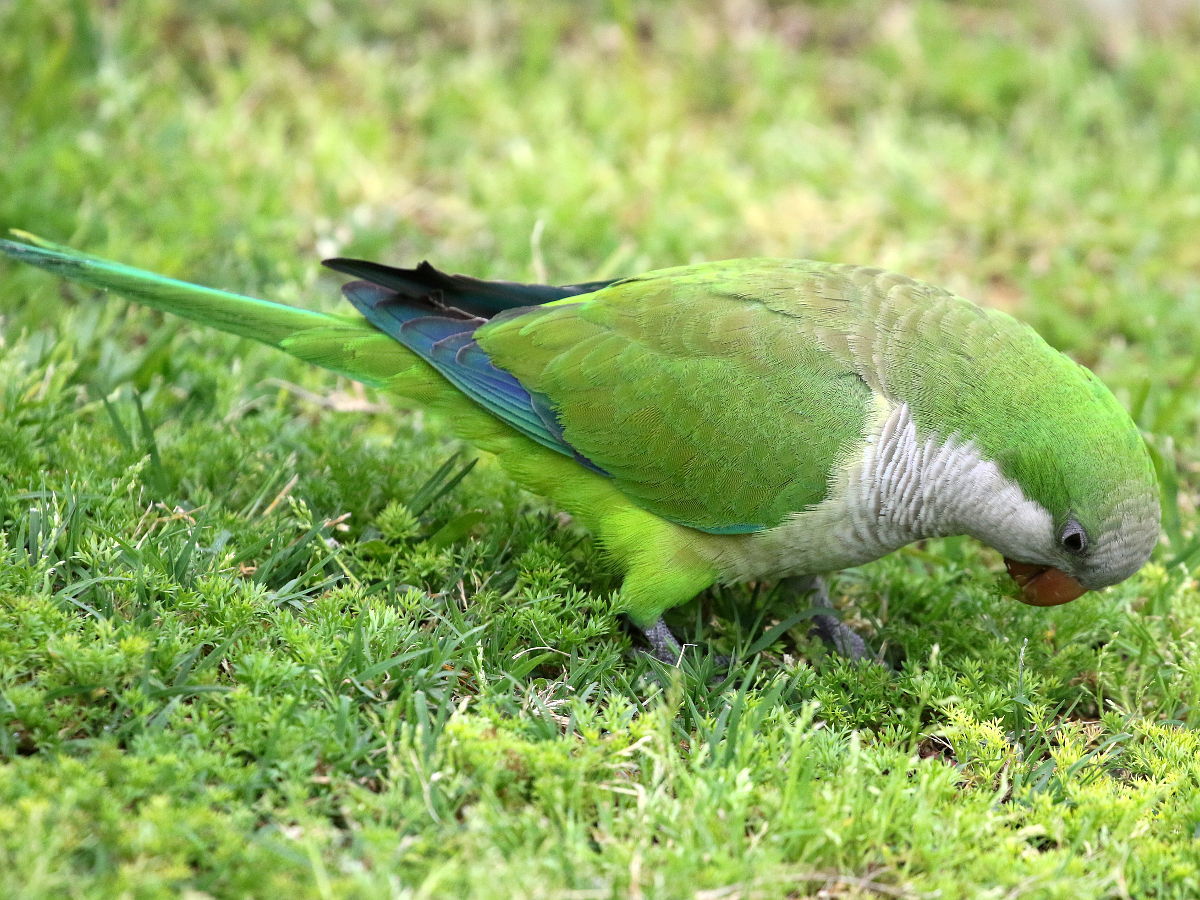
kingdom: Animalia
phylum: Chordata
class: Aves
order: Psittaciformes
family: Psittacidae
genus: Myiopsitta
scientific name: Myiopsitta monachus
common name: Monk parakeet
